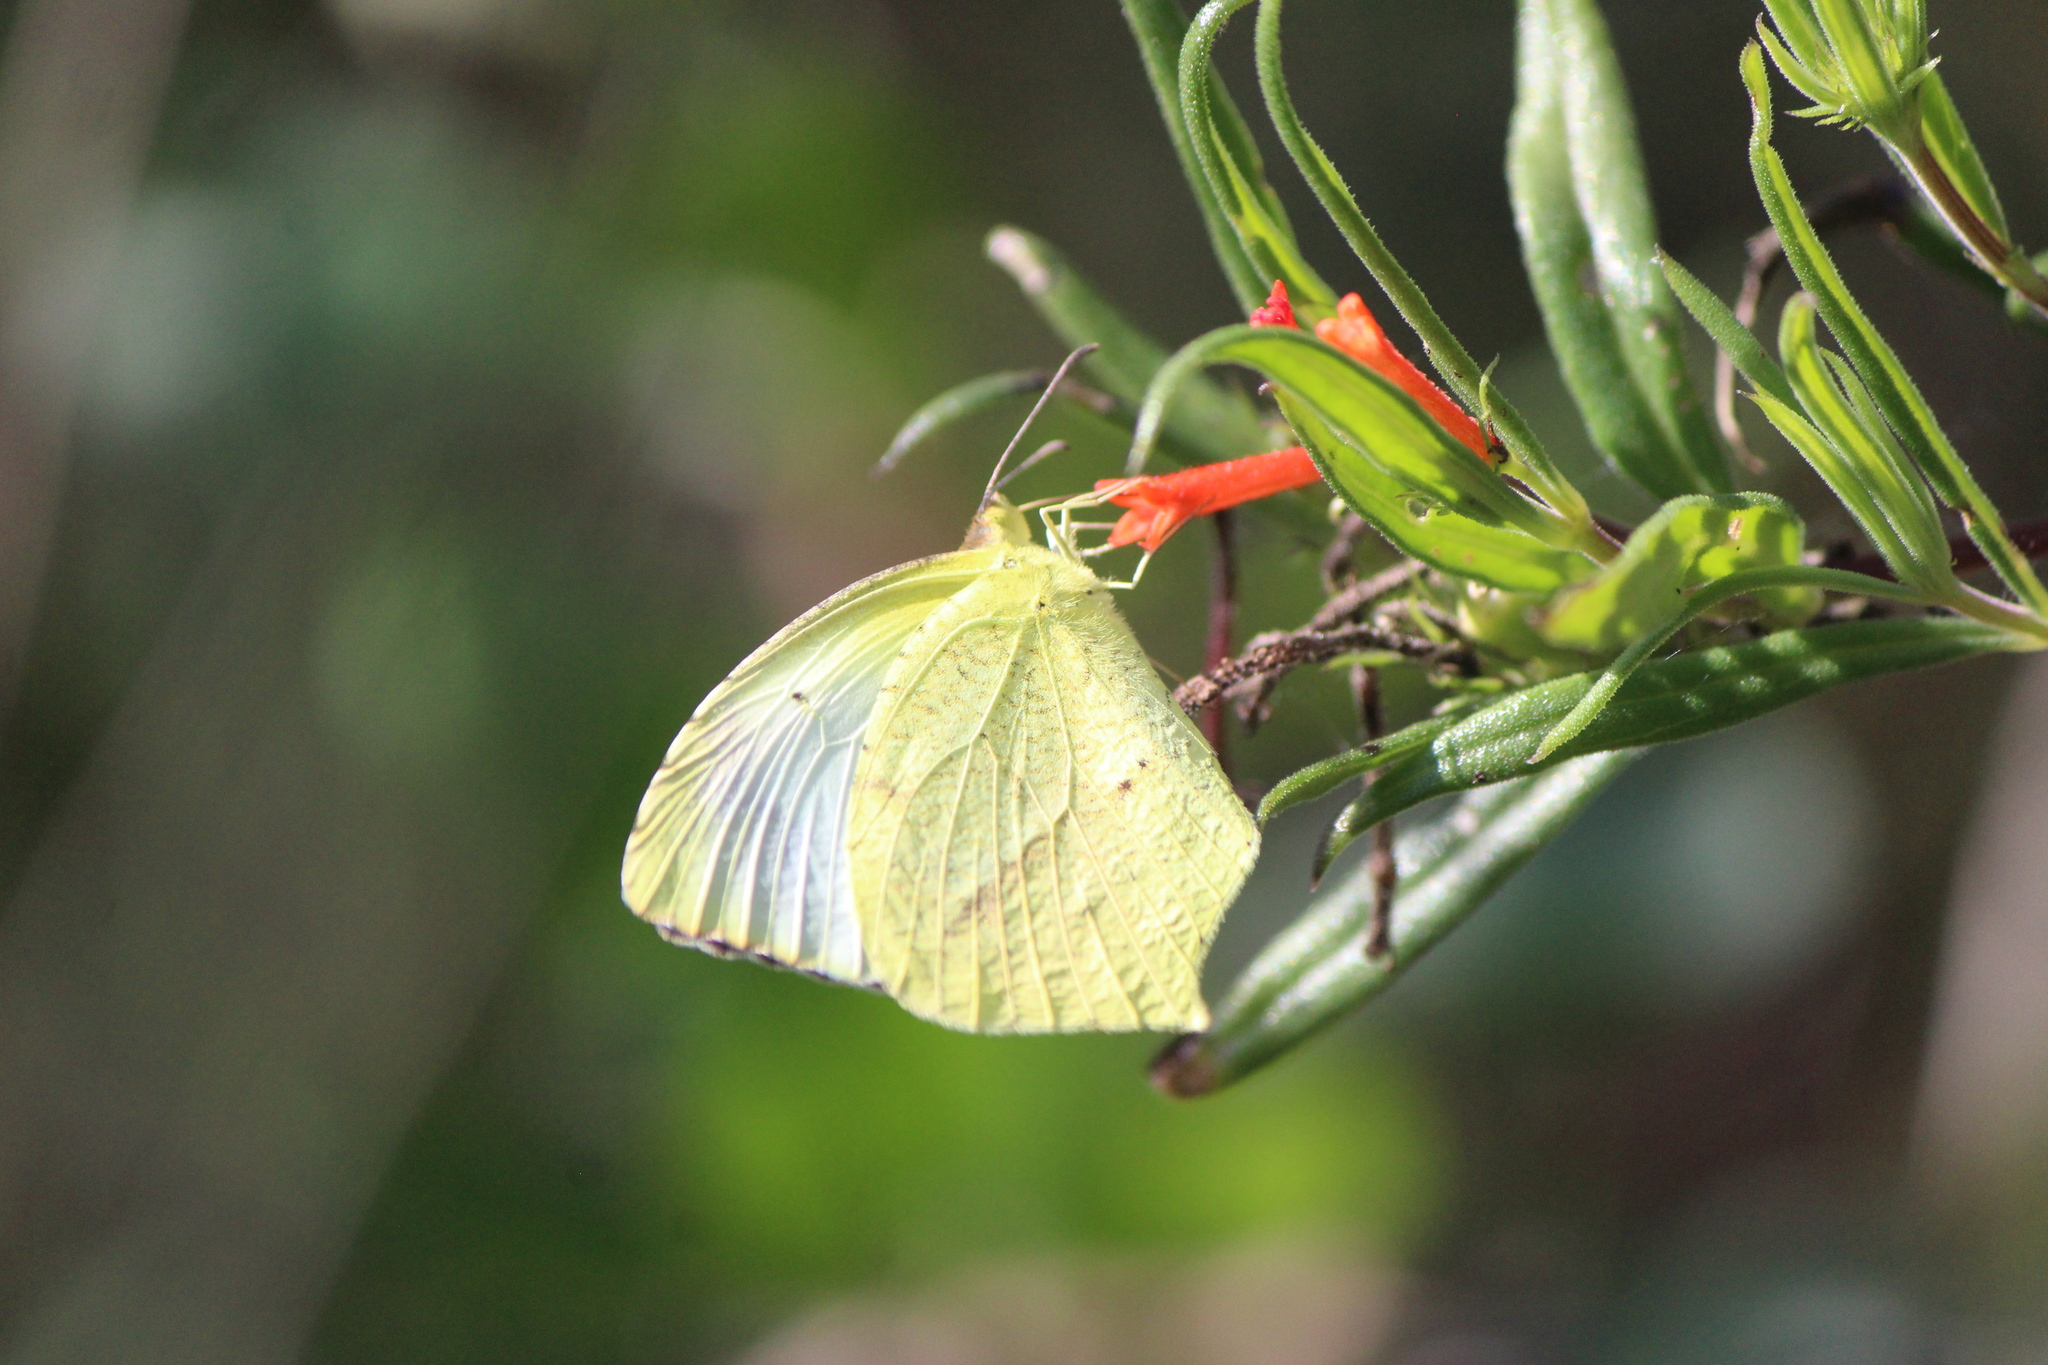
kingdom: Animalia
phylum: Arthropoda
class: Insecta
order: Lepidoptera
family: Pieridae
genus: Abaeis
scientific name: Abaeis mexicana
